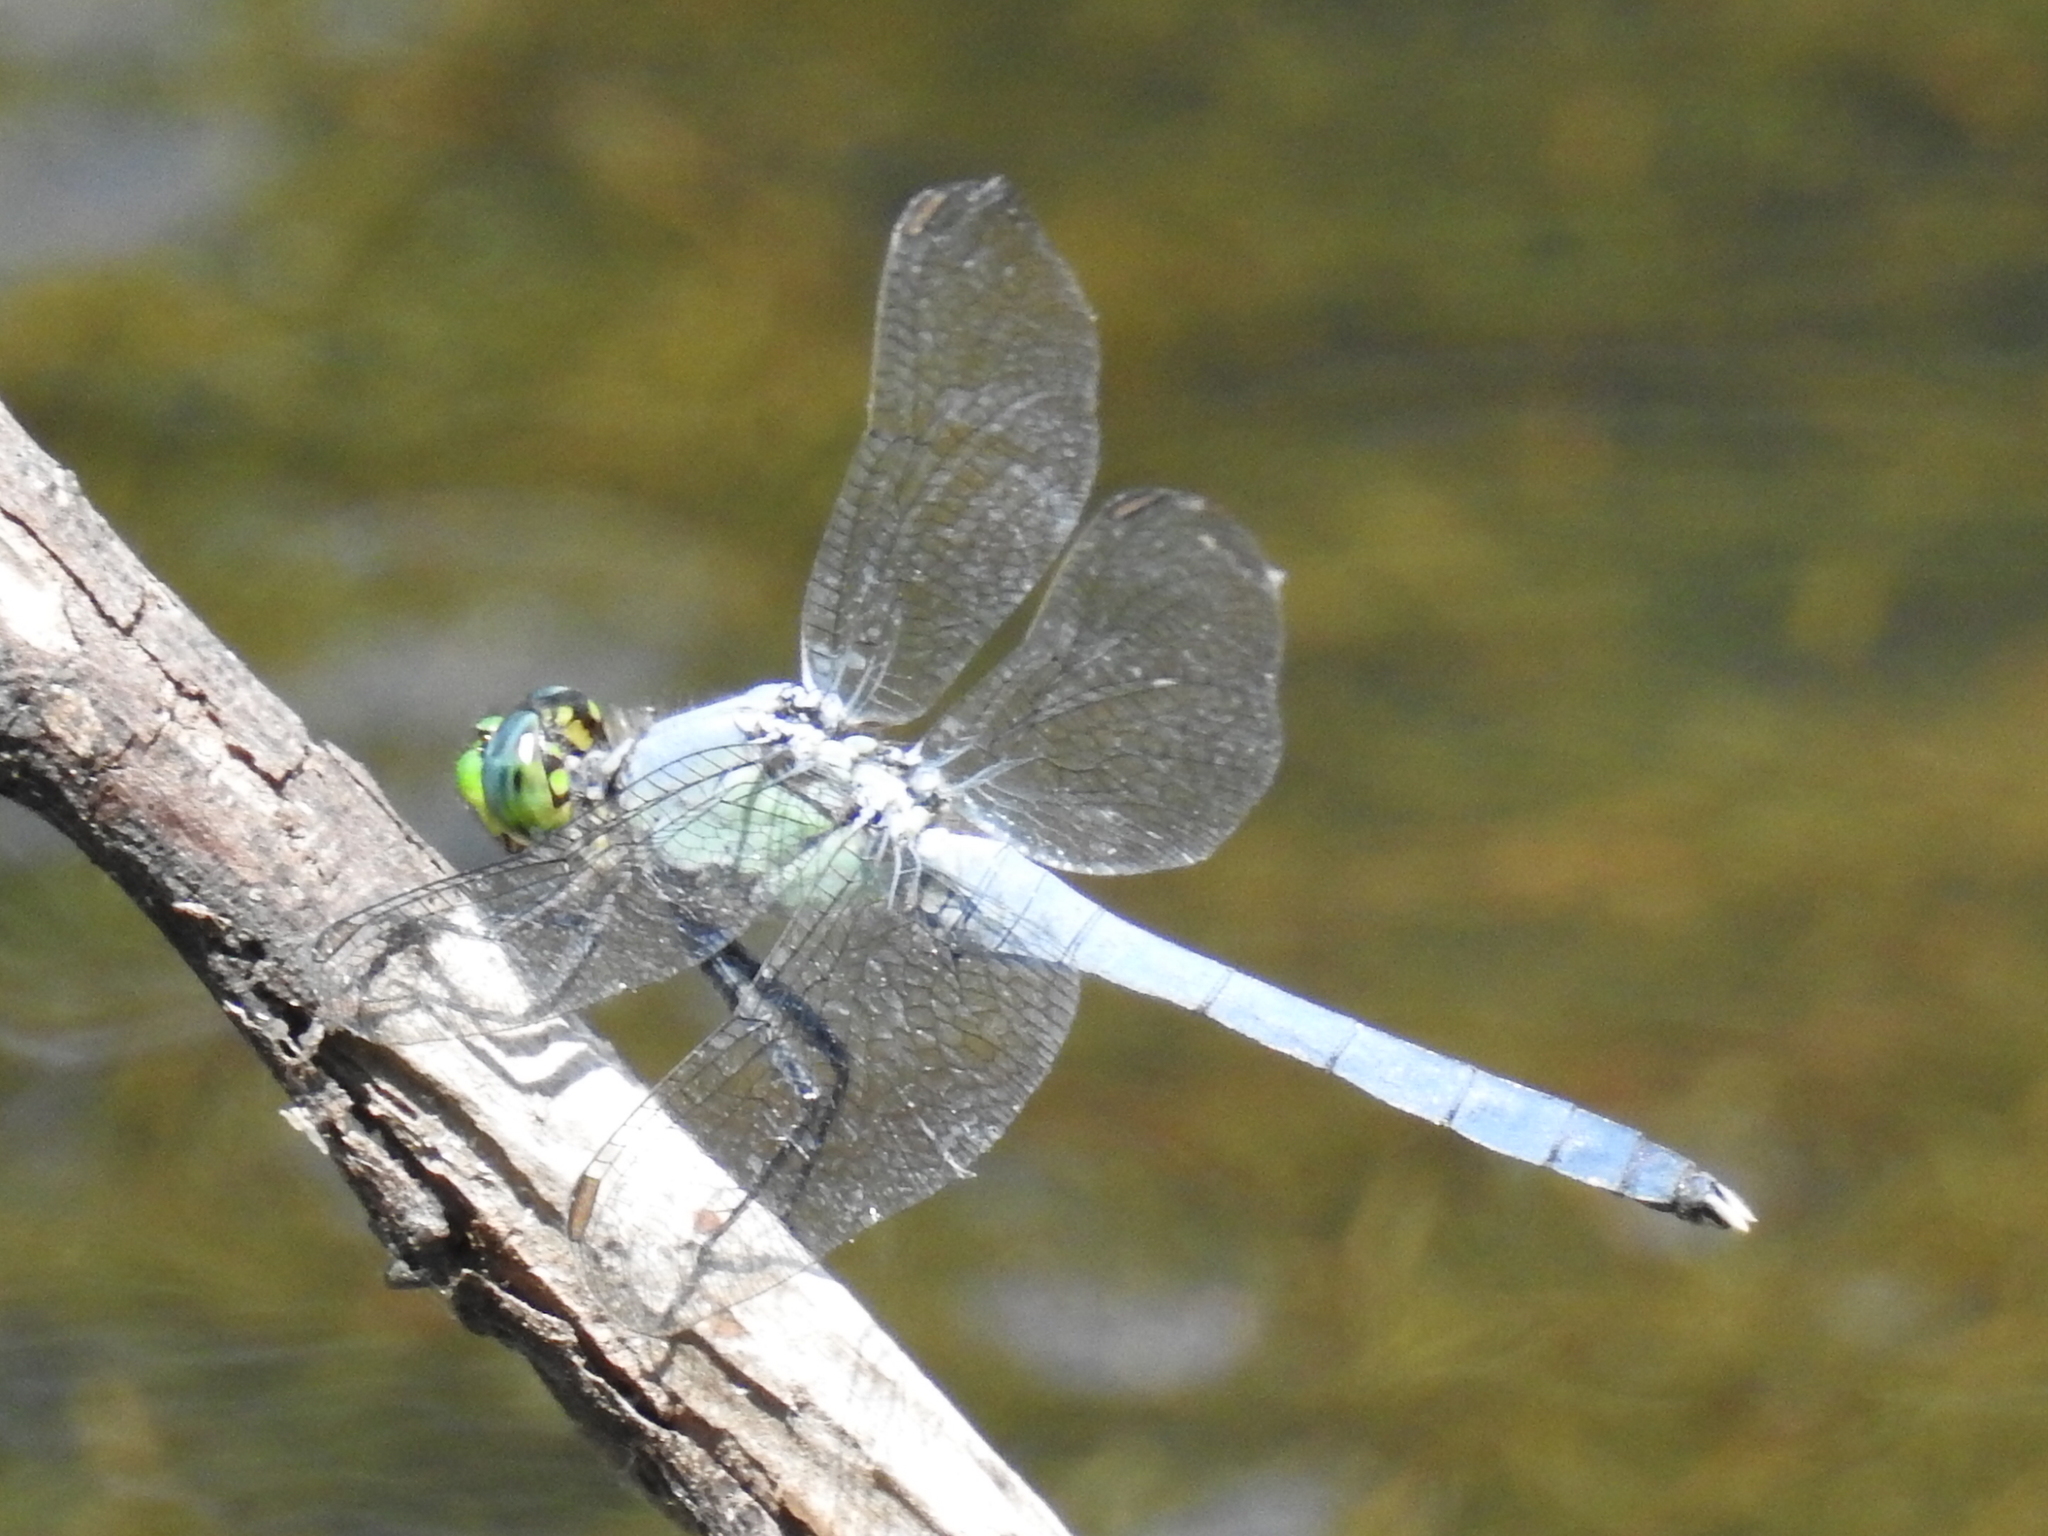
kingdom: Animalia
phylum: Arthropoda
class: Insecta
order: Odonata
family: Libellulidae
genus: Erythemis
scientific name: Erythemis simplicicollis
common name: Eastern pondhawk
